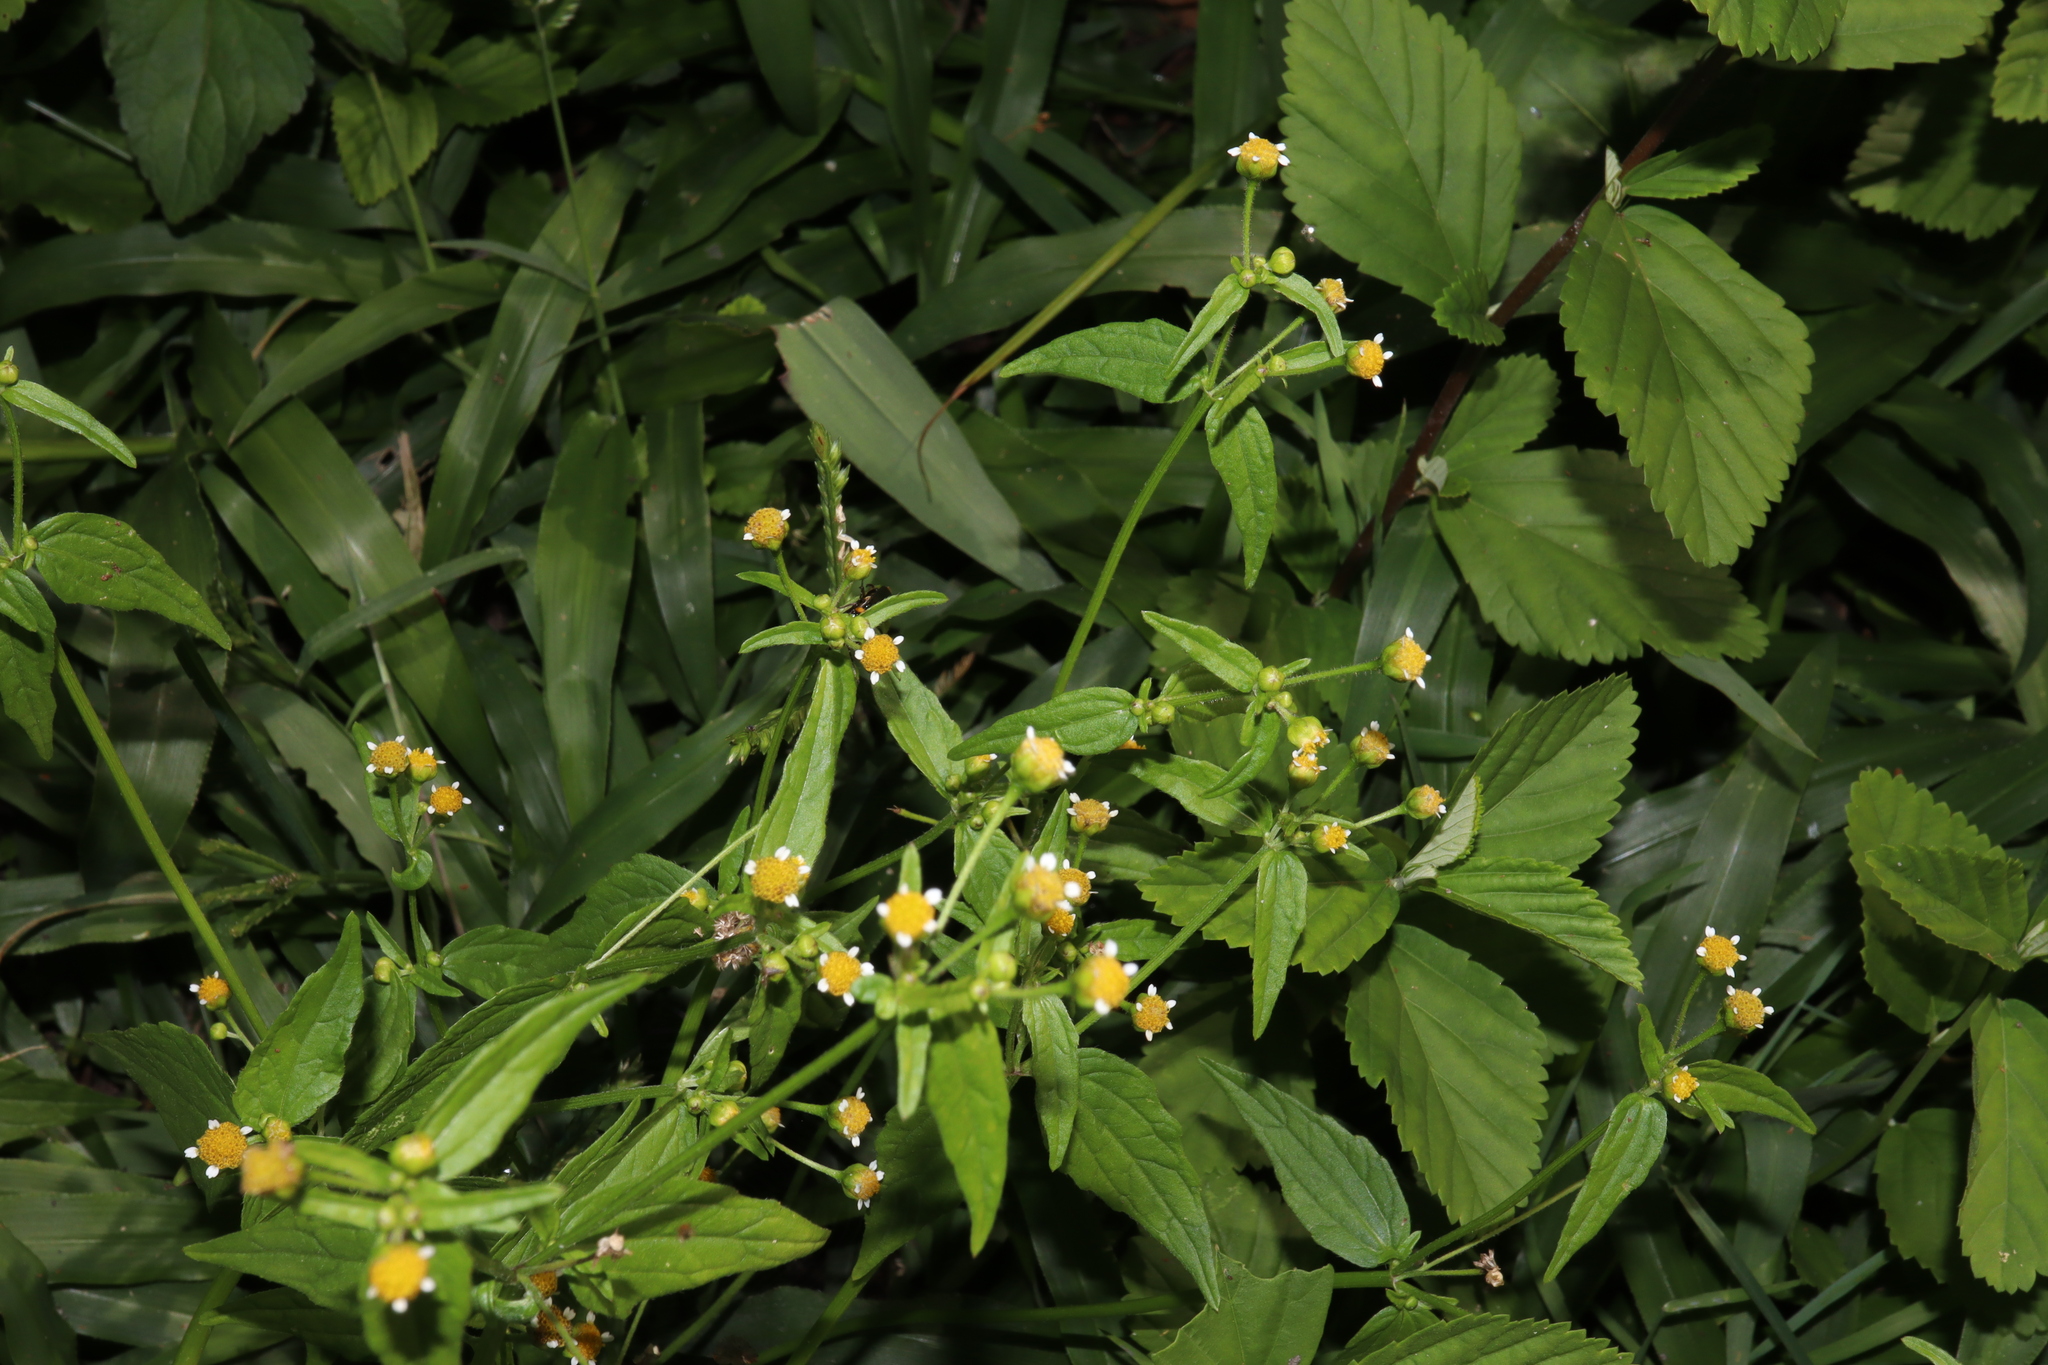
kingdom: Plantae
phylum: Tracheophyta
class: Magnoliopsida
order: Asterales
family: Asteraceae
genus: Galinsoga
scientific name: Galinsoga parviflora
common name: Gallant soldier
